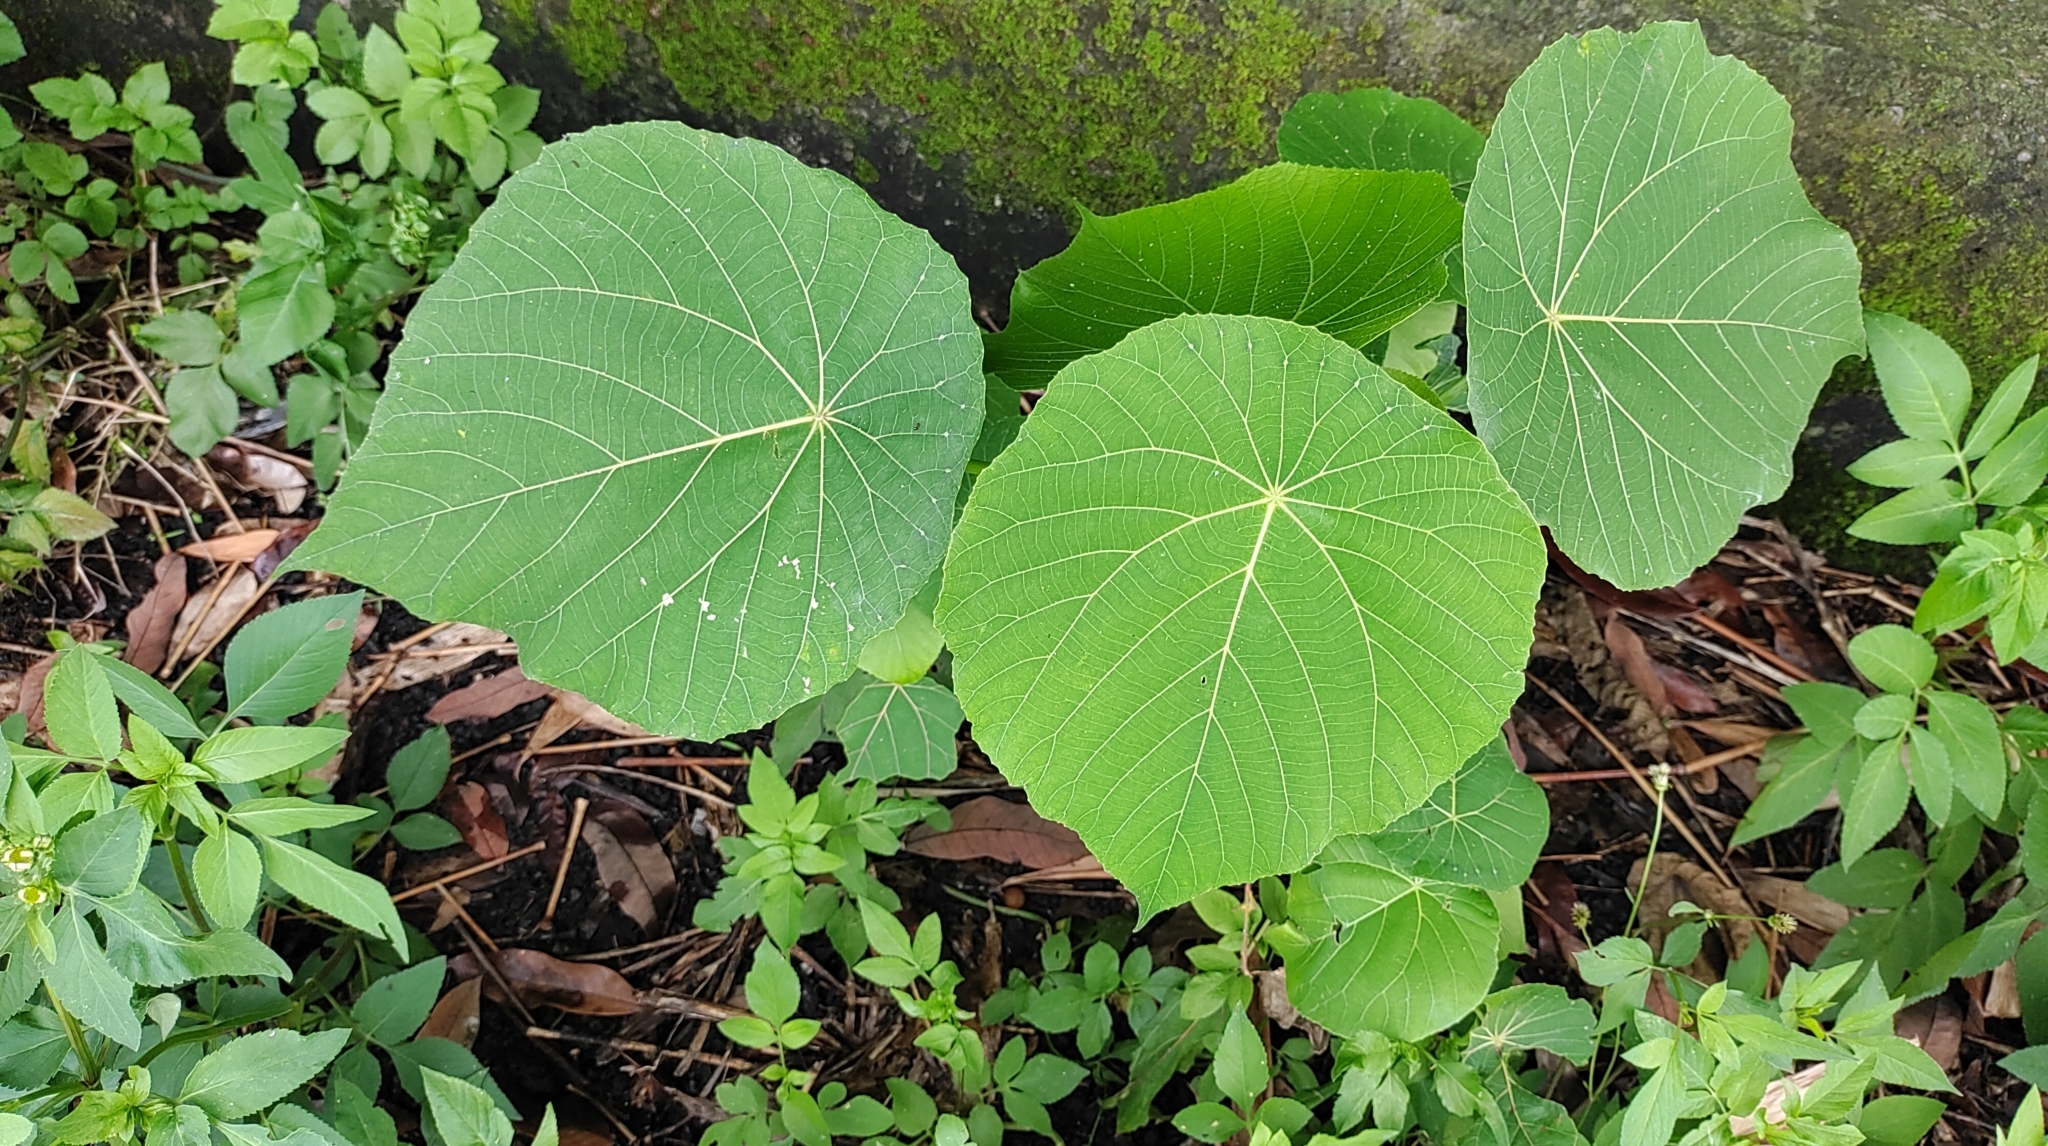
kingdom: Plantae
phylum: Tracheophyta
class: Magnoliopsida
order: Malpighiales
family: Euphorbiaceae
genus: Macaranga
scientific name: Macaranga tanarius
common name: Parasol leaf tree
